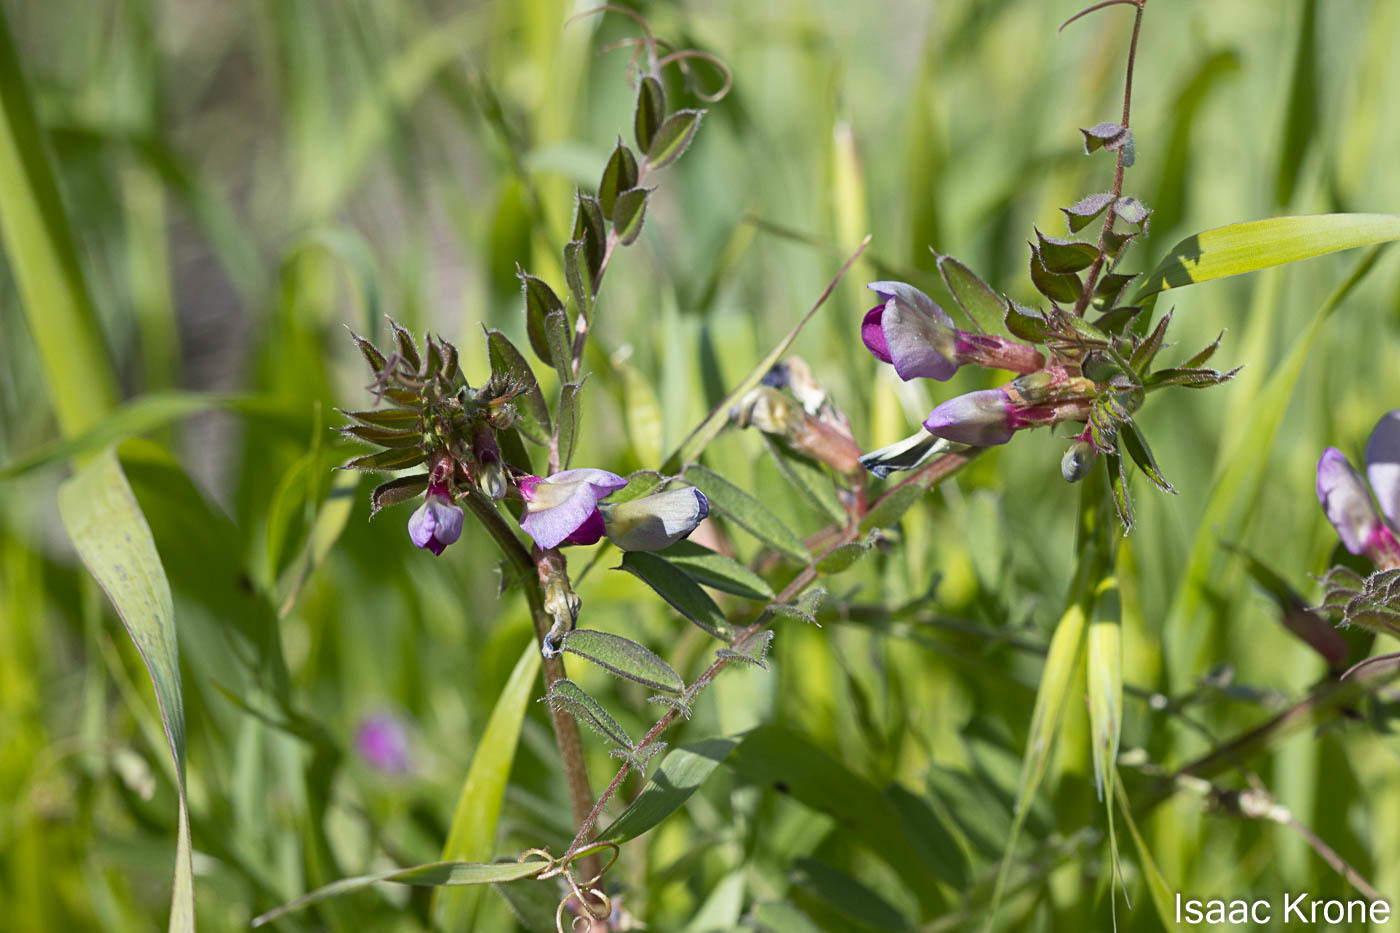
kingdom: Plantae
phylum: Tracheophyta
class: Magnoliopsida
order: Fabales
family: Fabaceae
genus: Vicia
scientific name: Vicia sativa
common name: Garden vetch
